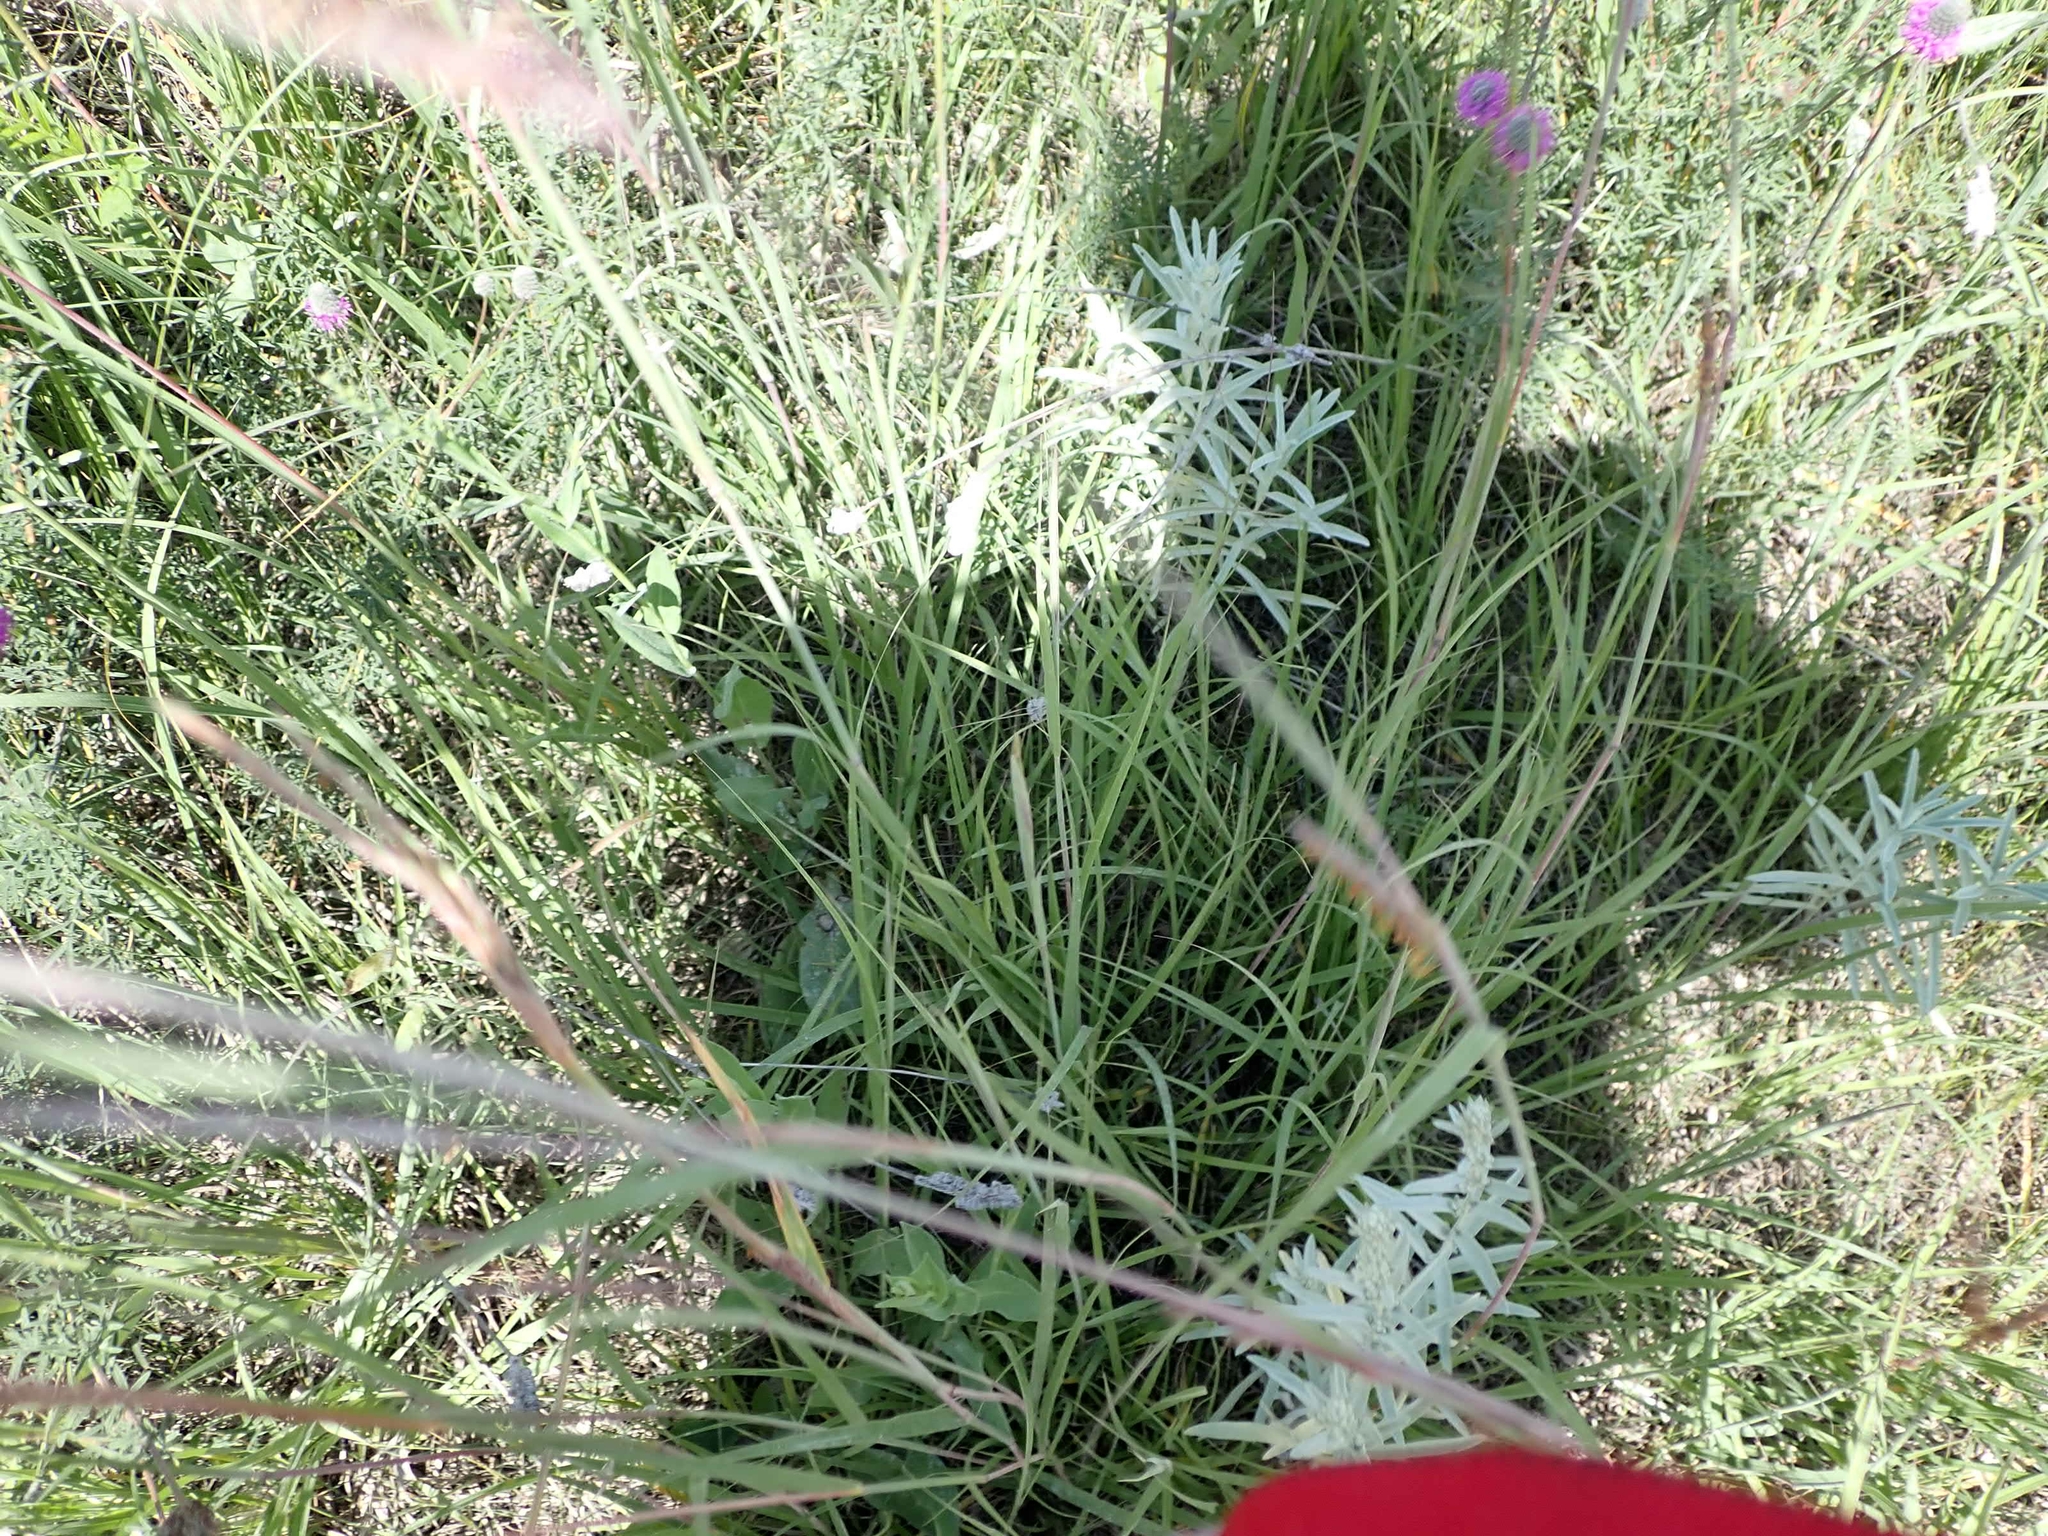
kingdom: Plantae
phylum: Tracheophyta
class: Liliopsida
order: Poales
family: Poaceae
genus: Andropogon
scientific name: Andropogon gerardi
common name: Big bluestem
